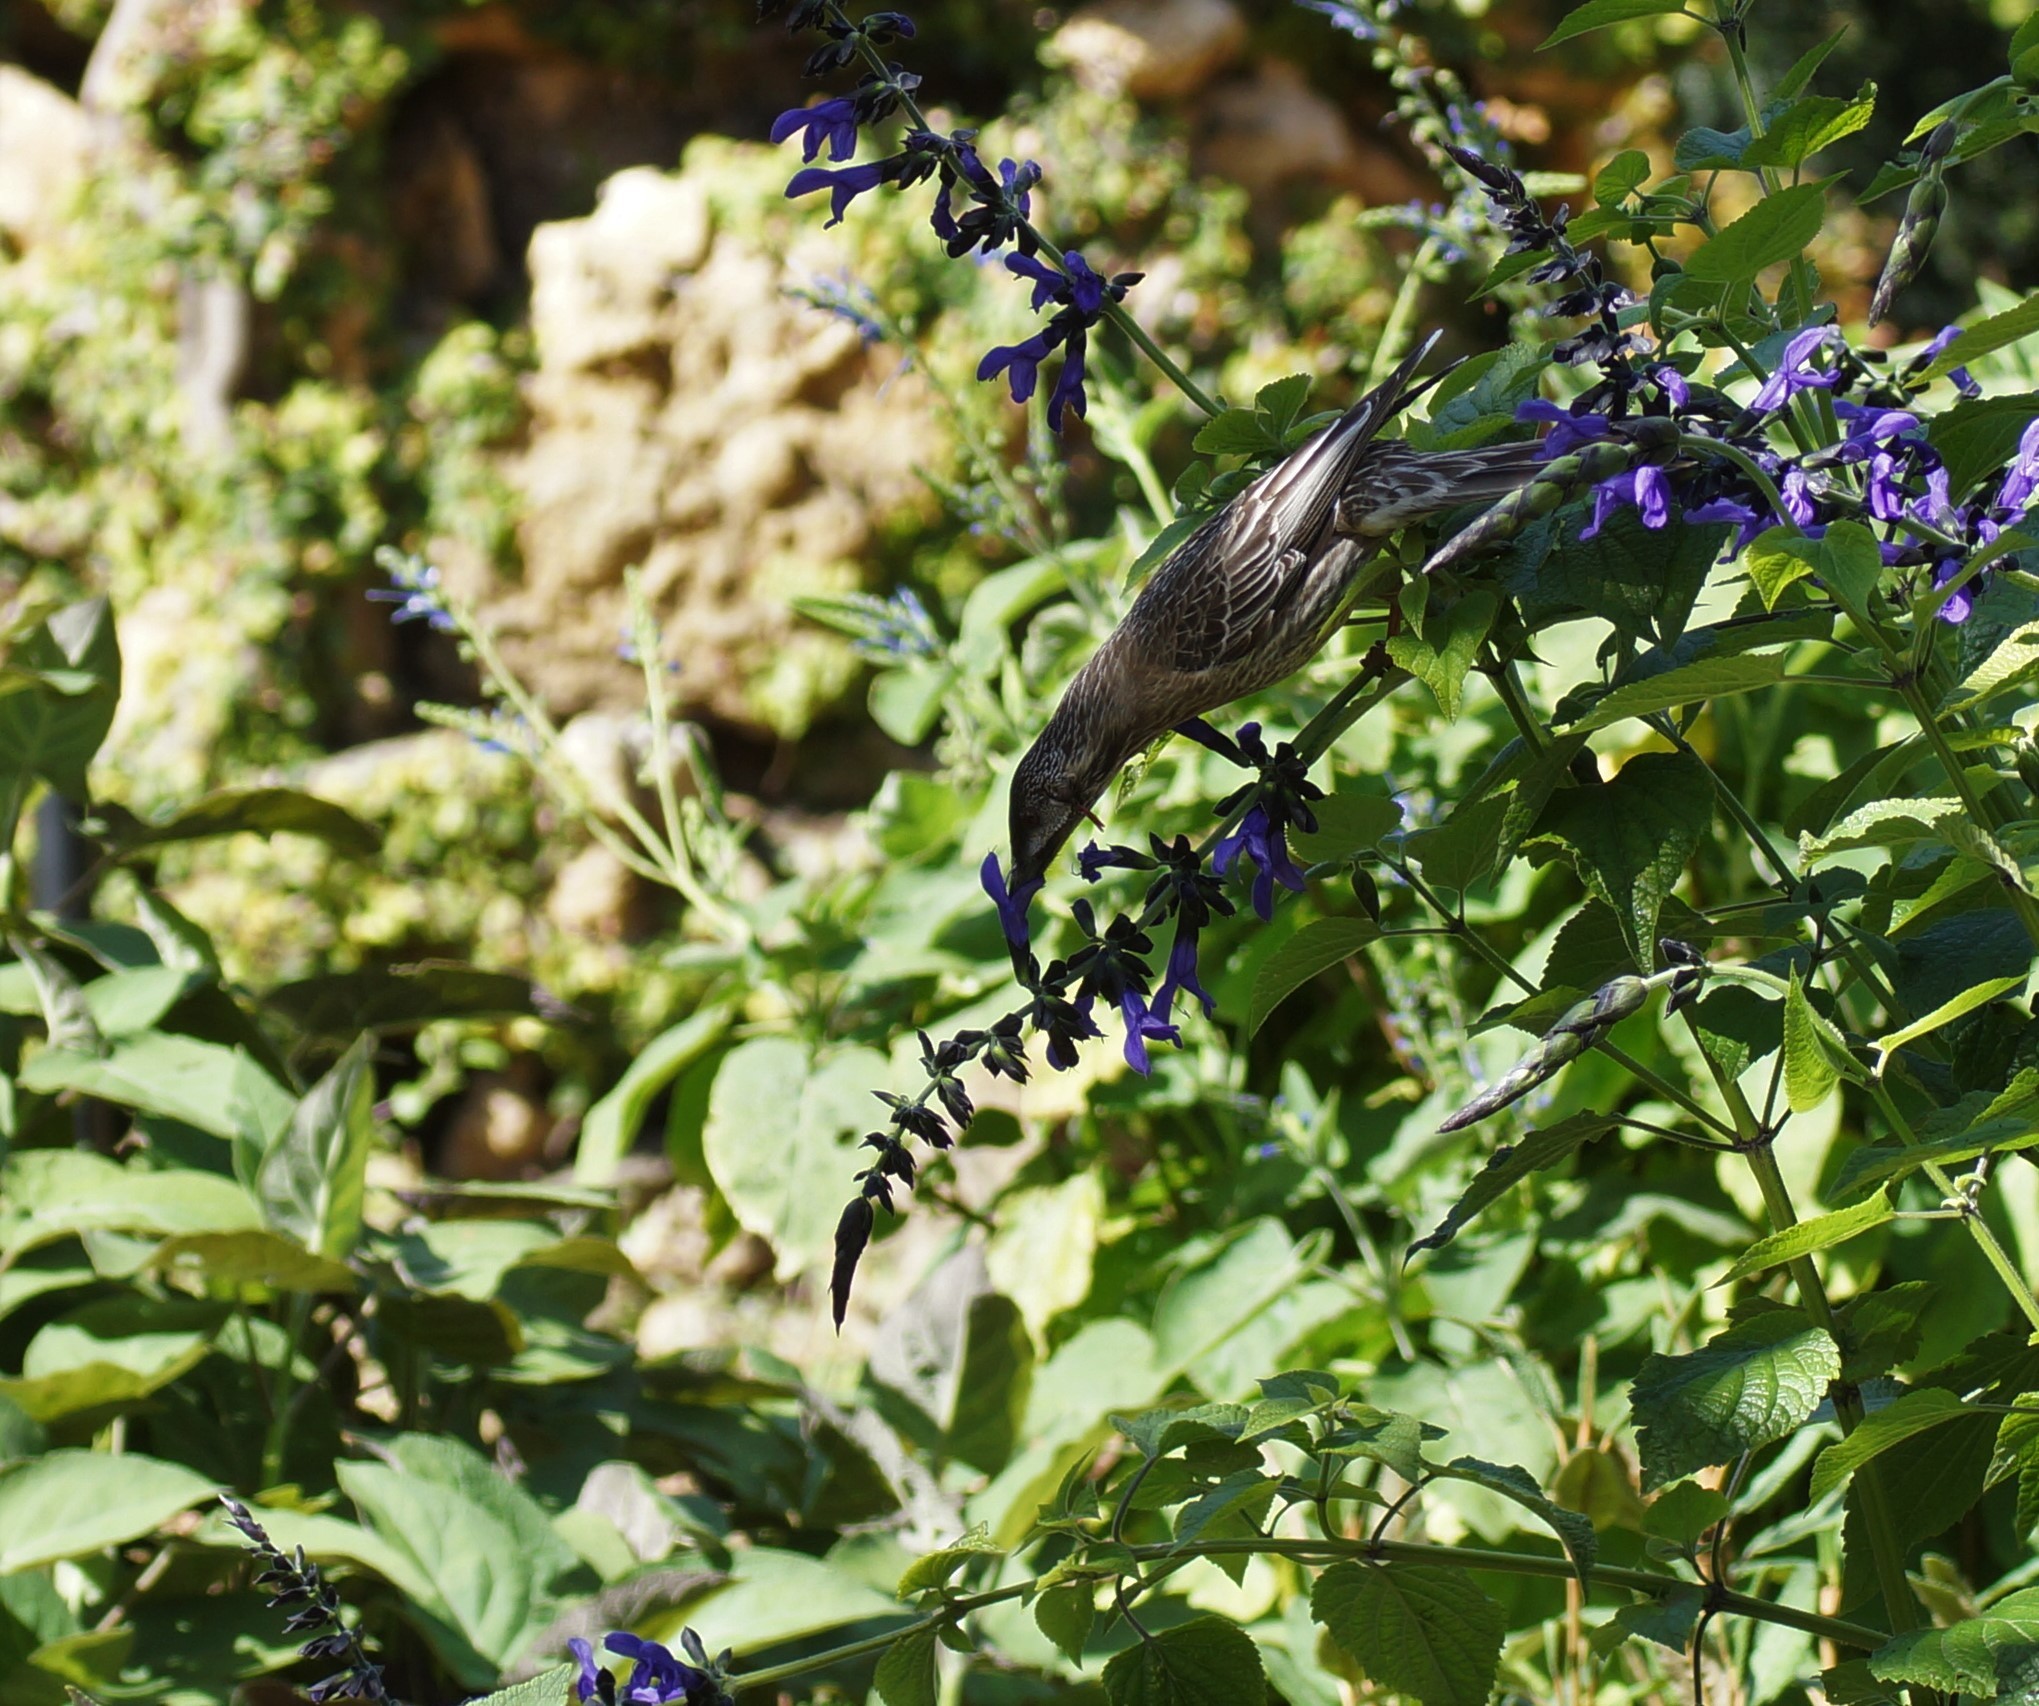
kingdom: Animalia
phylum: Chordata
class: Aves
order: Passeriformes
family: Meliphagidae
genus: Anthochaera
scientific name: Anthochaera carunculata
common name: Red wattlebird
